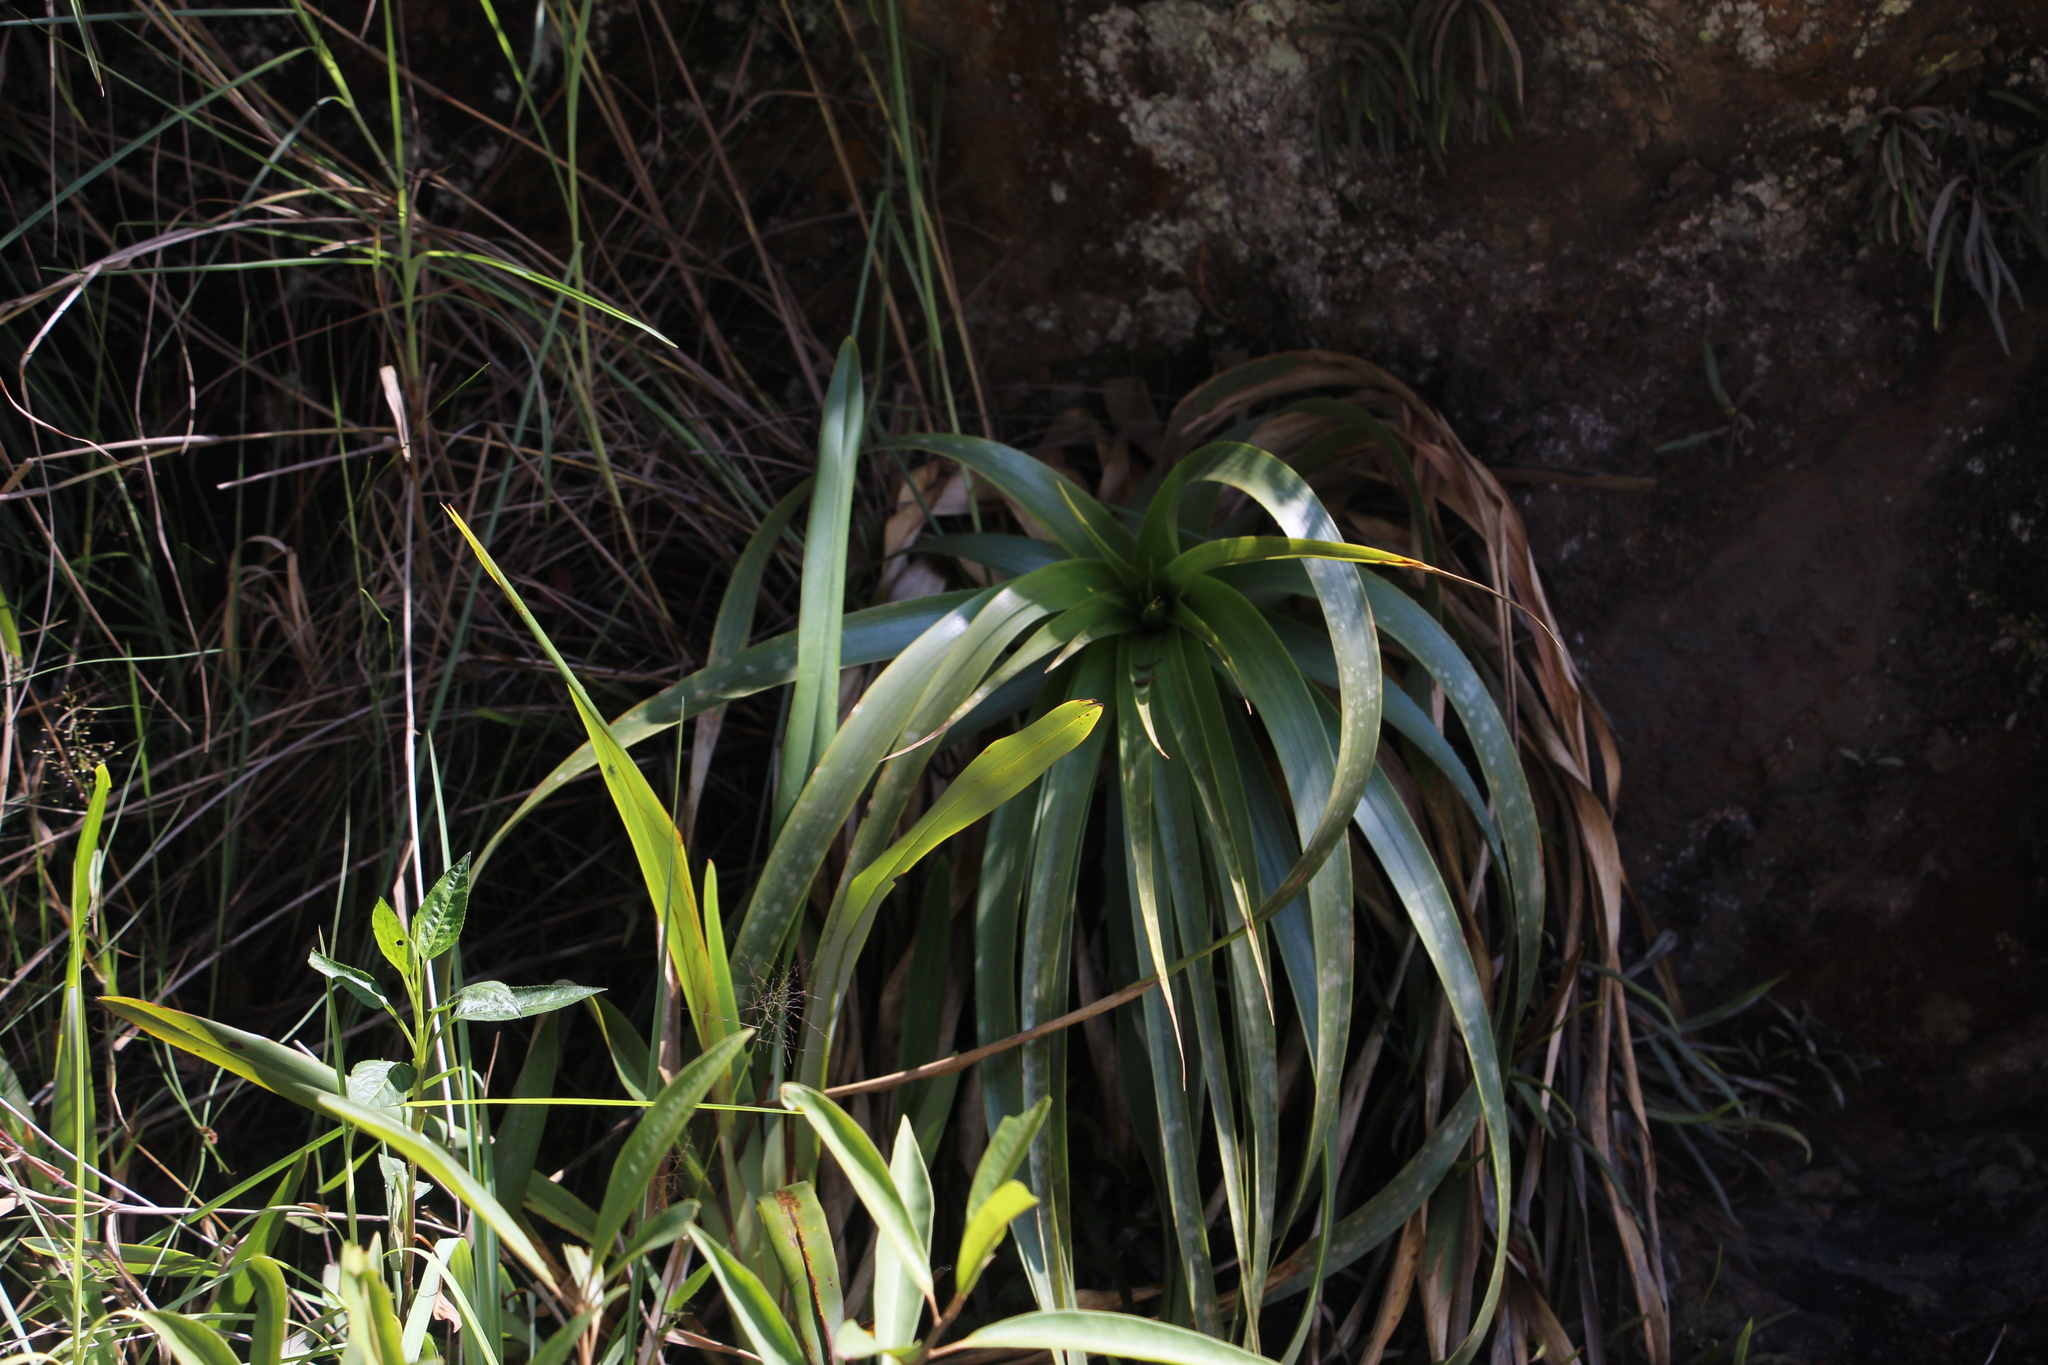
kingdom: Plantae
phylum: Tracheophyta
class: Liliopsida
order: Poales
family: Bromeliaceae
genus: Puya
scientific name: Puya
